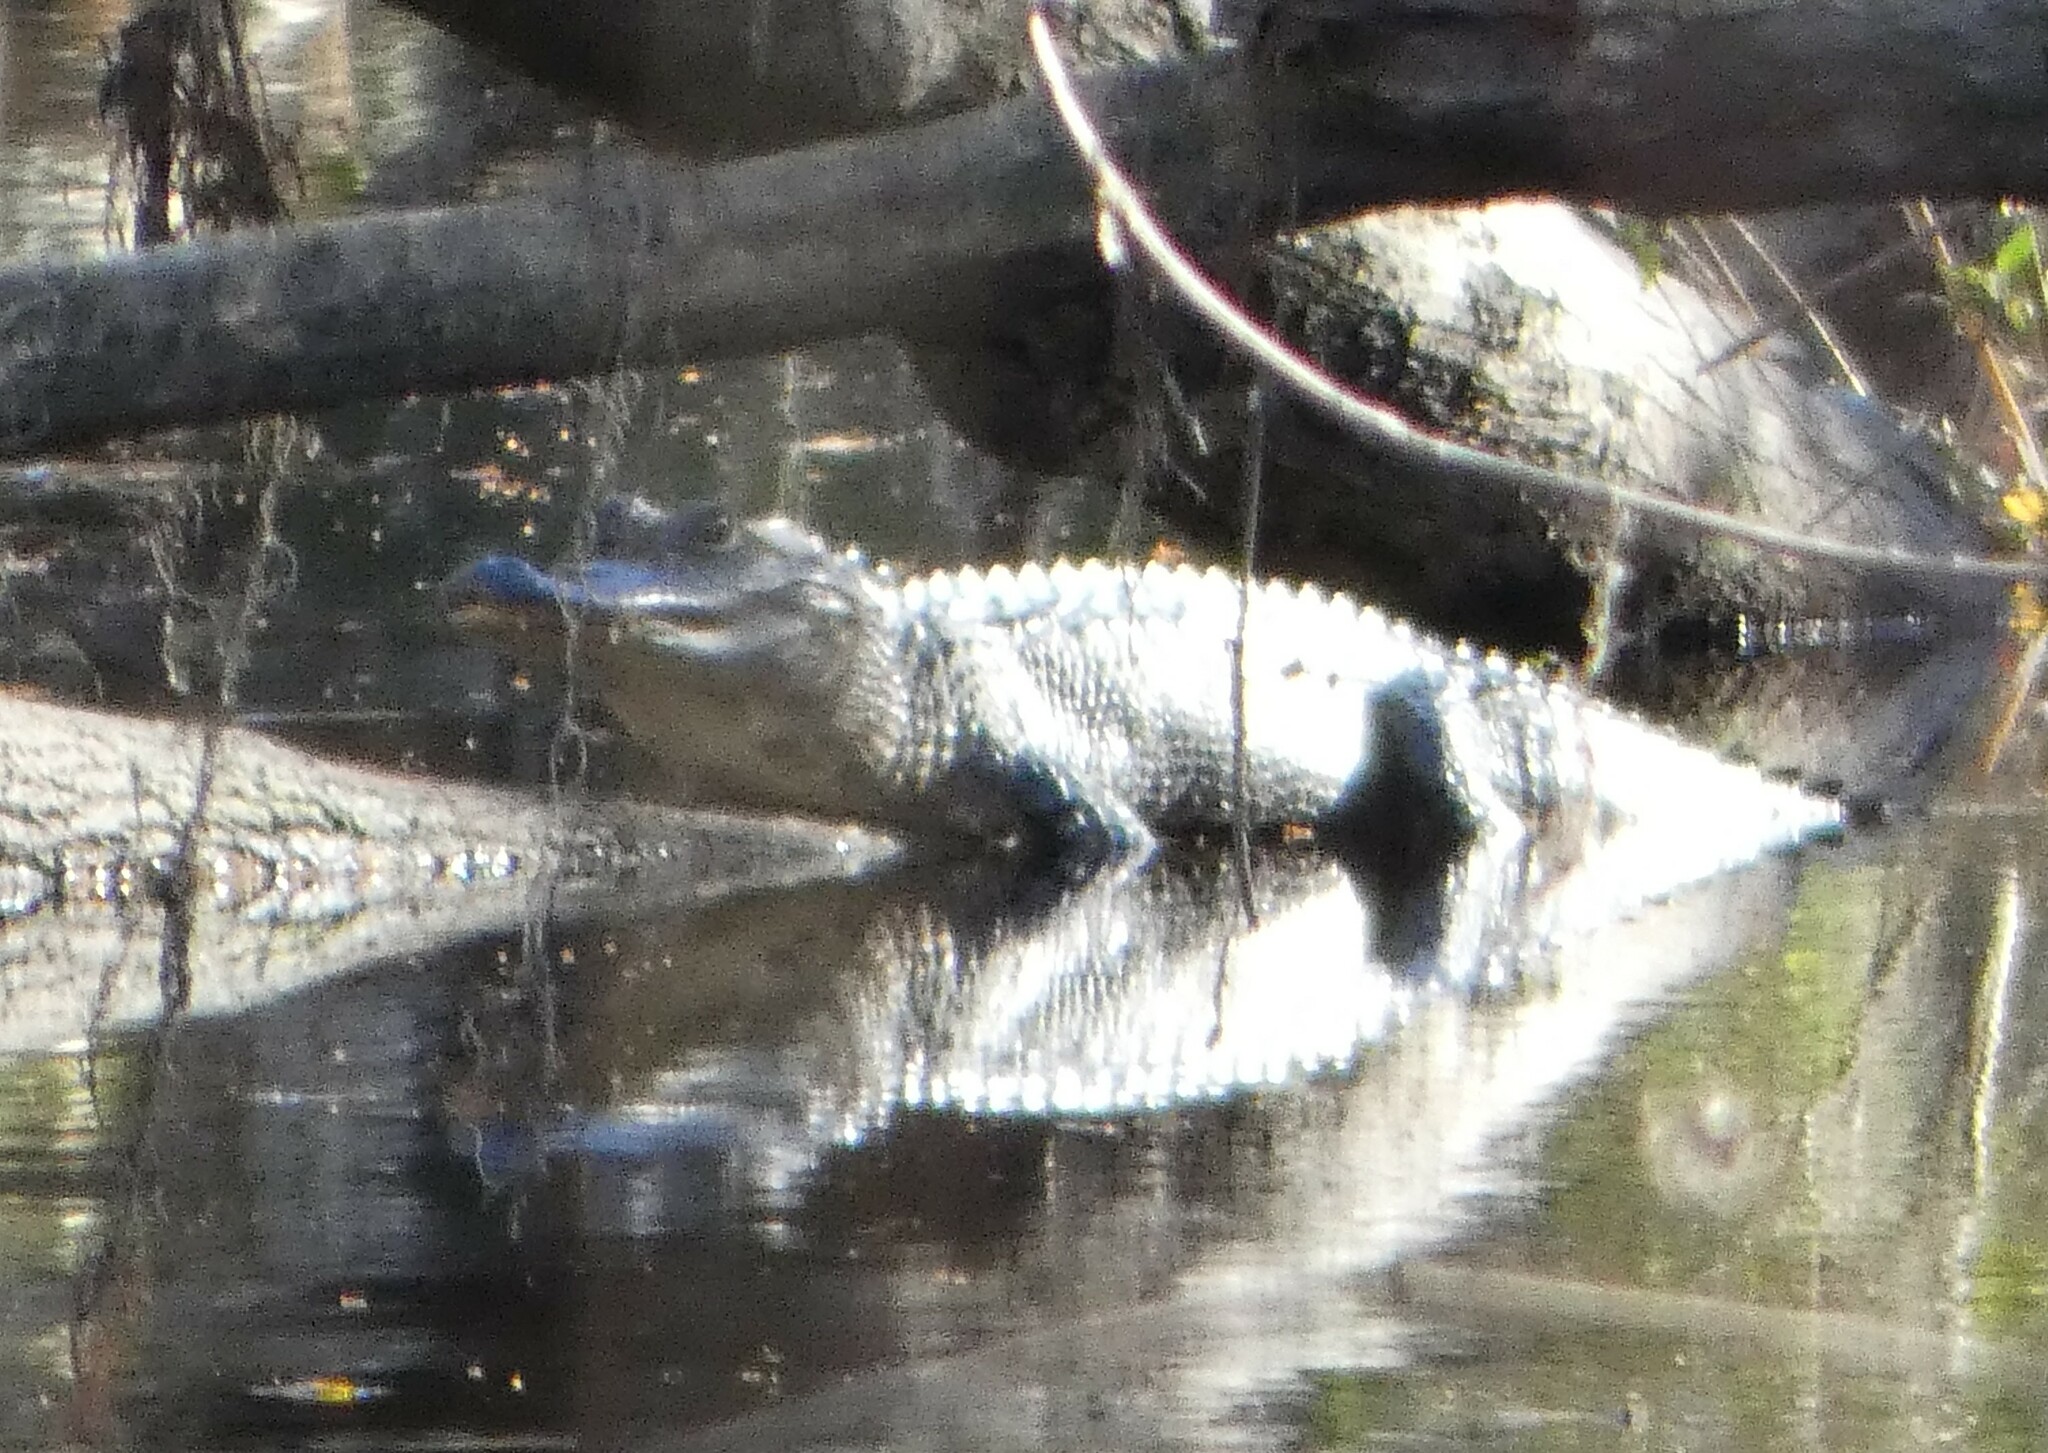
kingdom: Animalia
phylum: Chordata
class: Crocodylia
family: Alligatoridae
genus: Alligator
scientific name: Alligator mississippiensis
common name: American alligator
